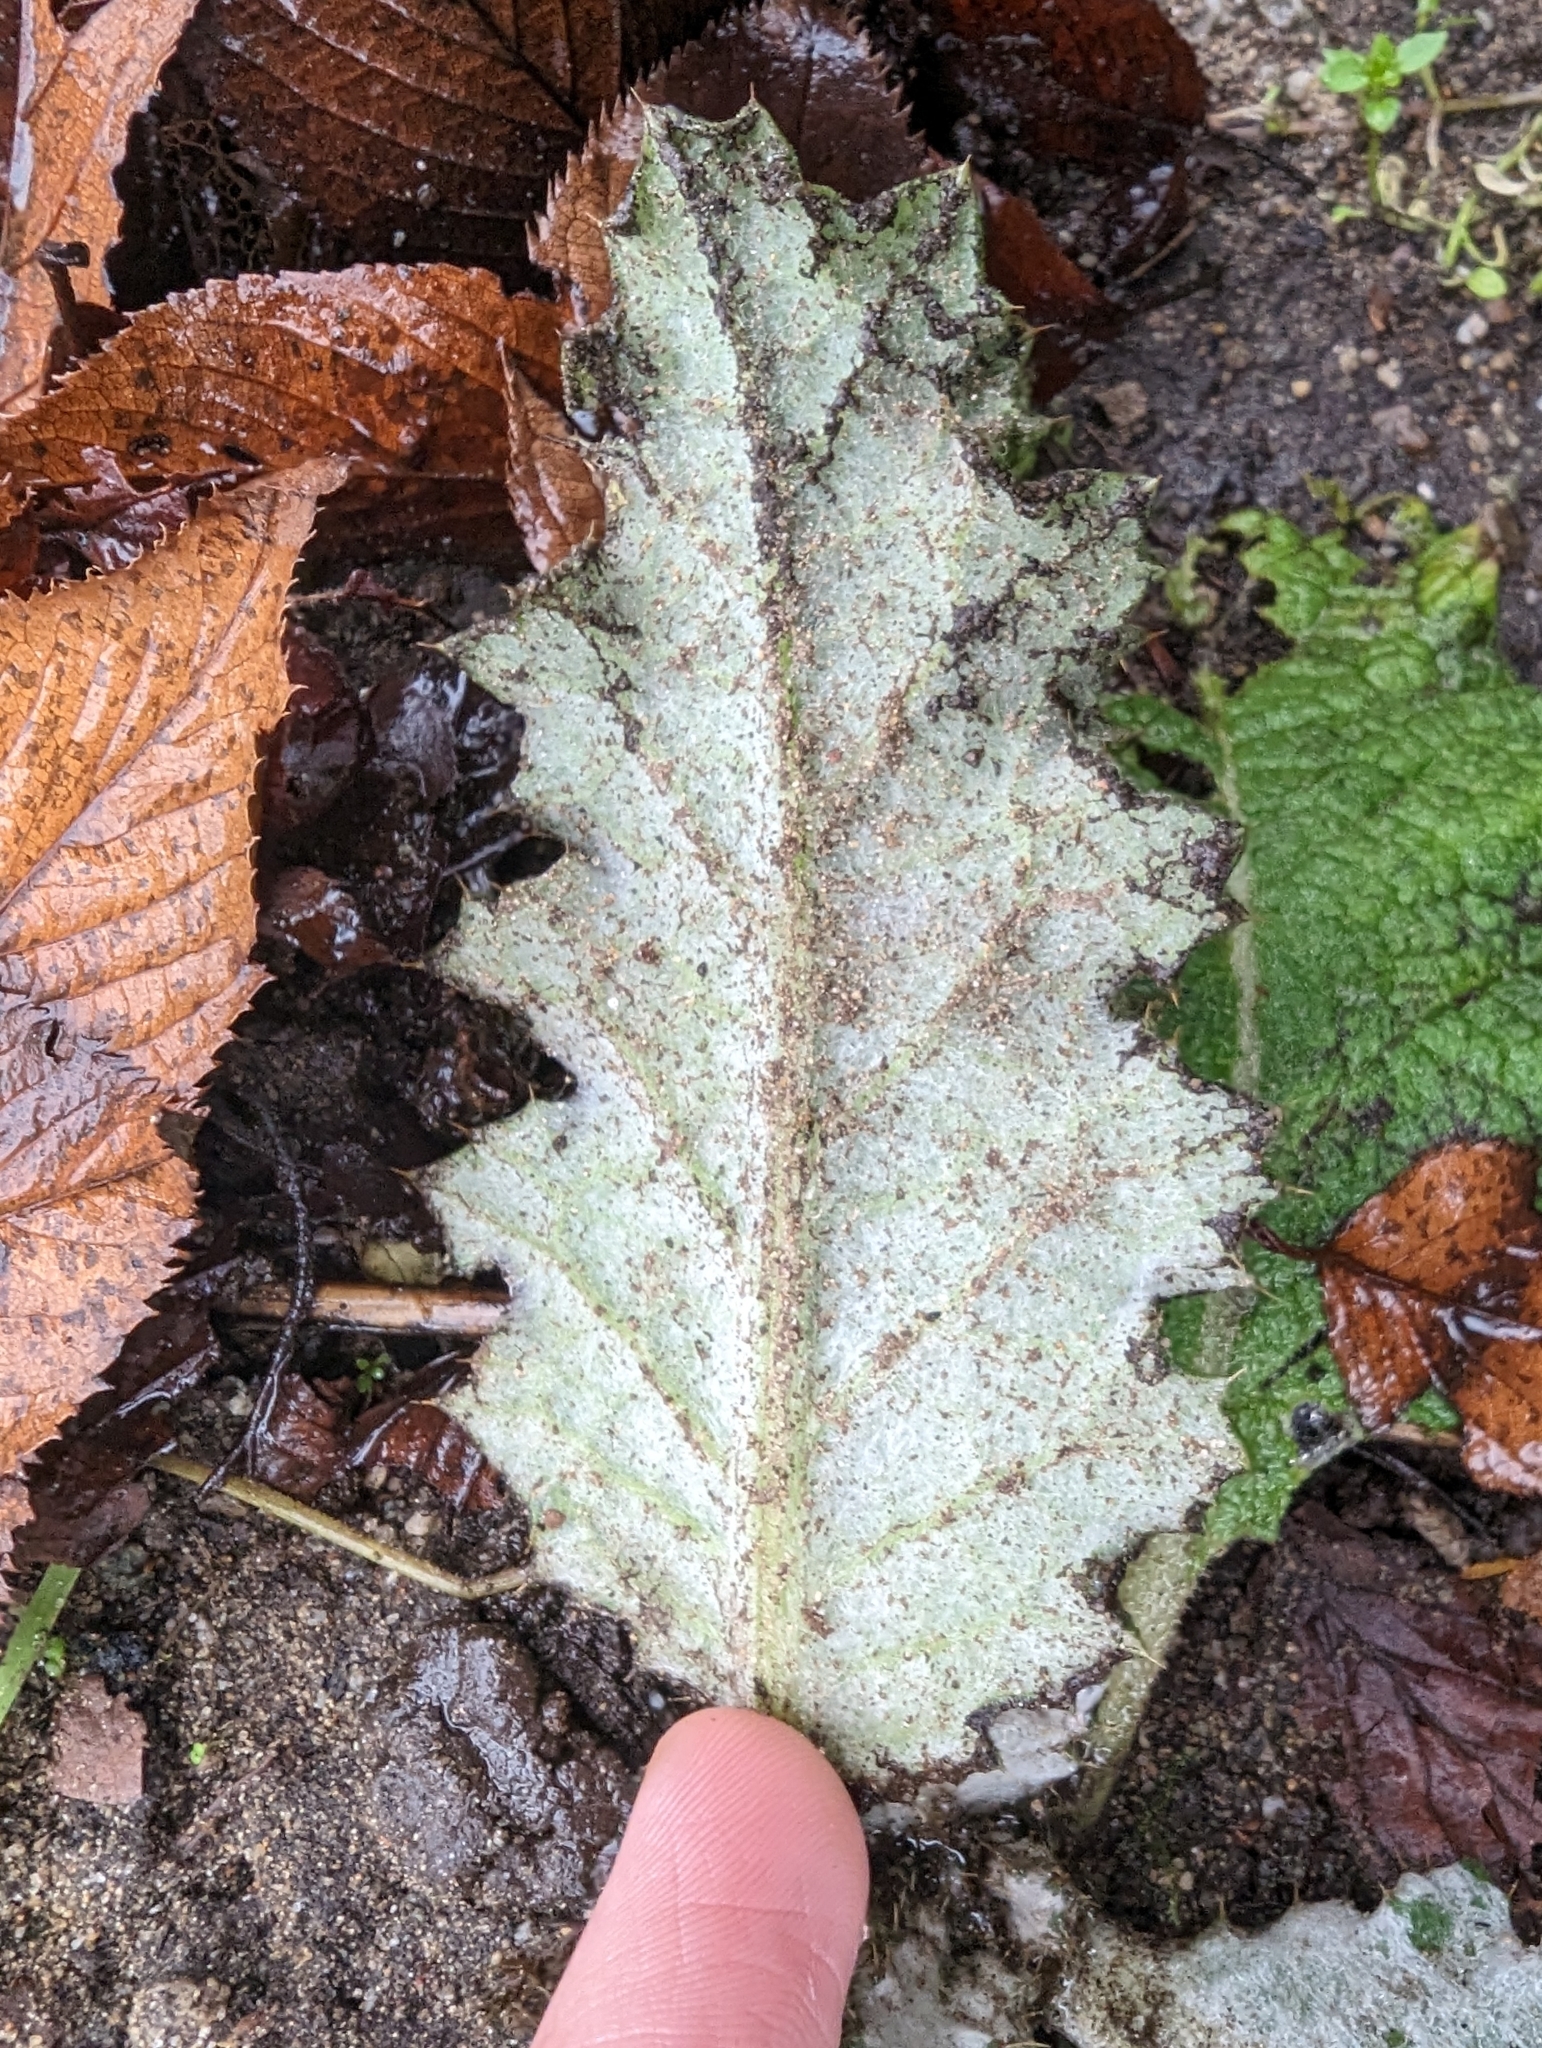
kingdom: Plantae
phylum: Tracheophyta
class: Magnoliopsida
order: Asterales
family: Asteraceae
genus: Onopordum
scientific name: Onopordum acanthium
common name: Scotch thistle
